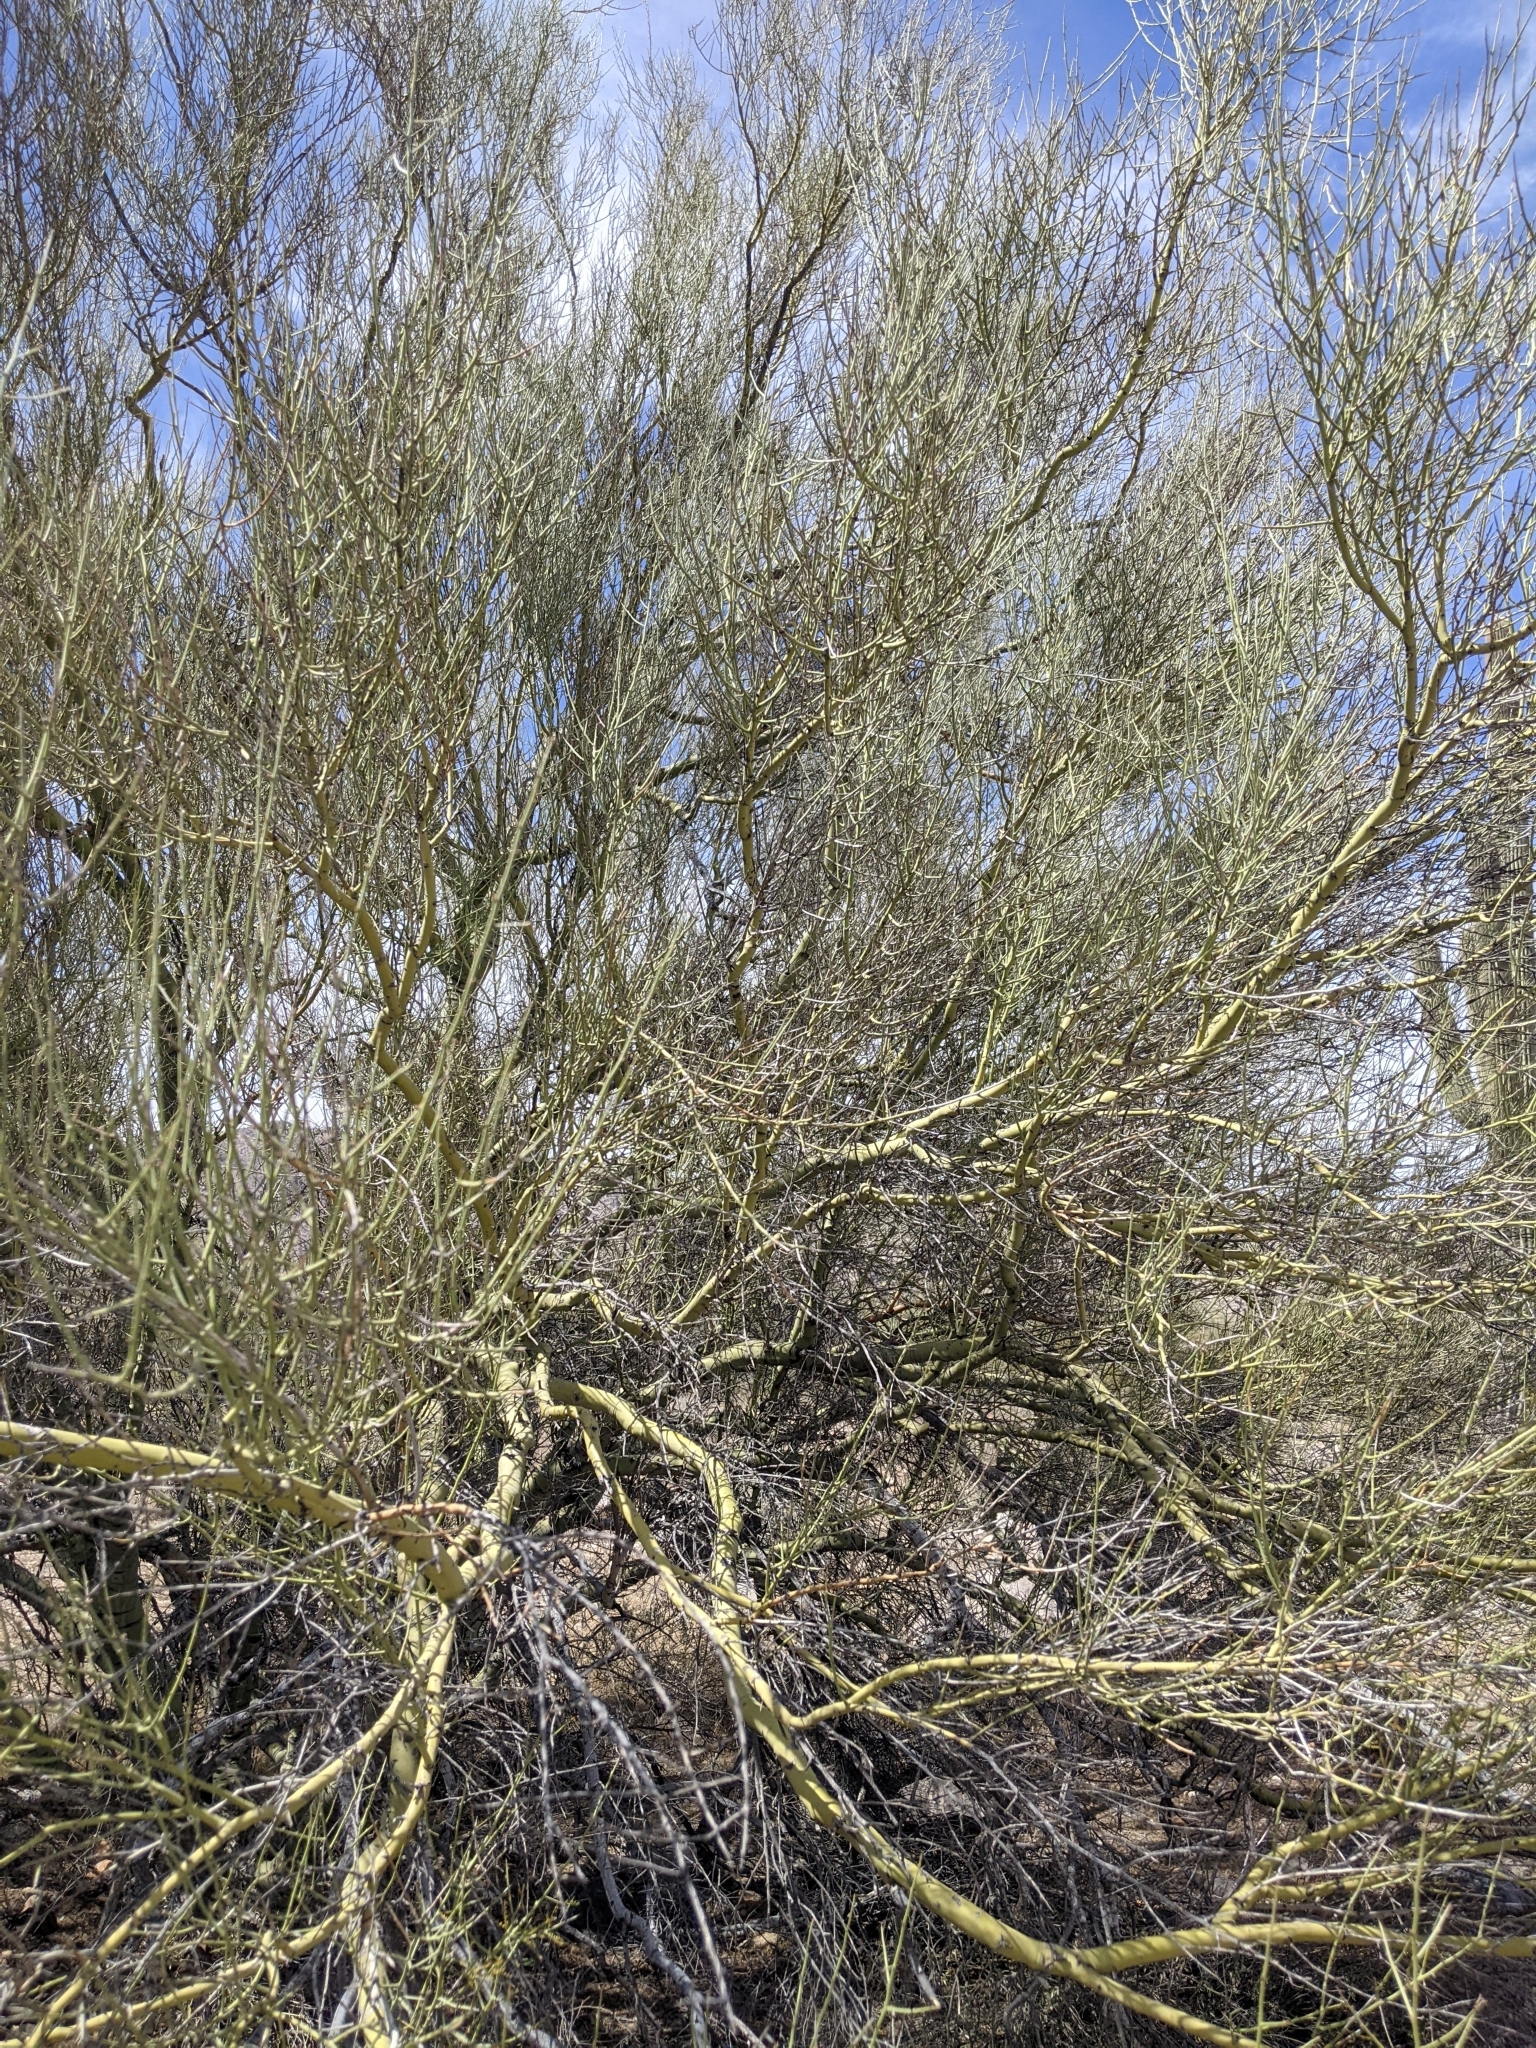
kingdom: Plantae
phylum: Tracheophyta
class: Magnoliopsida
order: Fabales
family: Fabaceae
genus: Parkinsonia
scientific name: Parkinsonia microphylla
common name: Yellow paloverde
